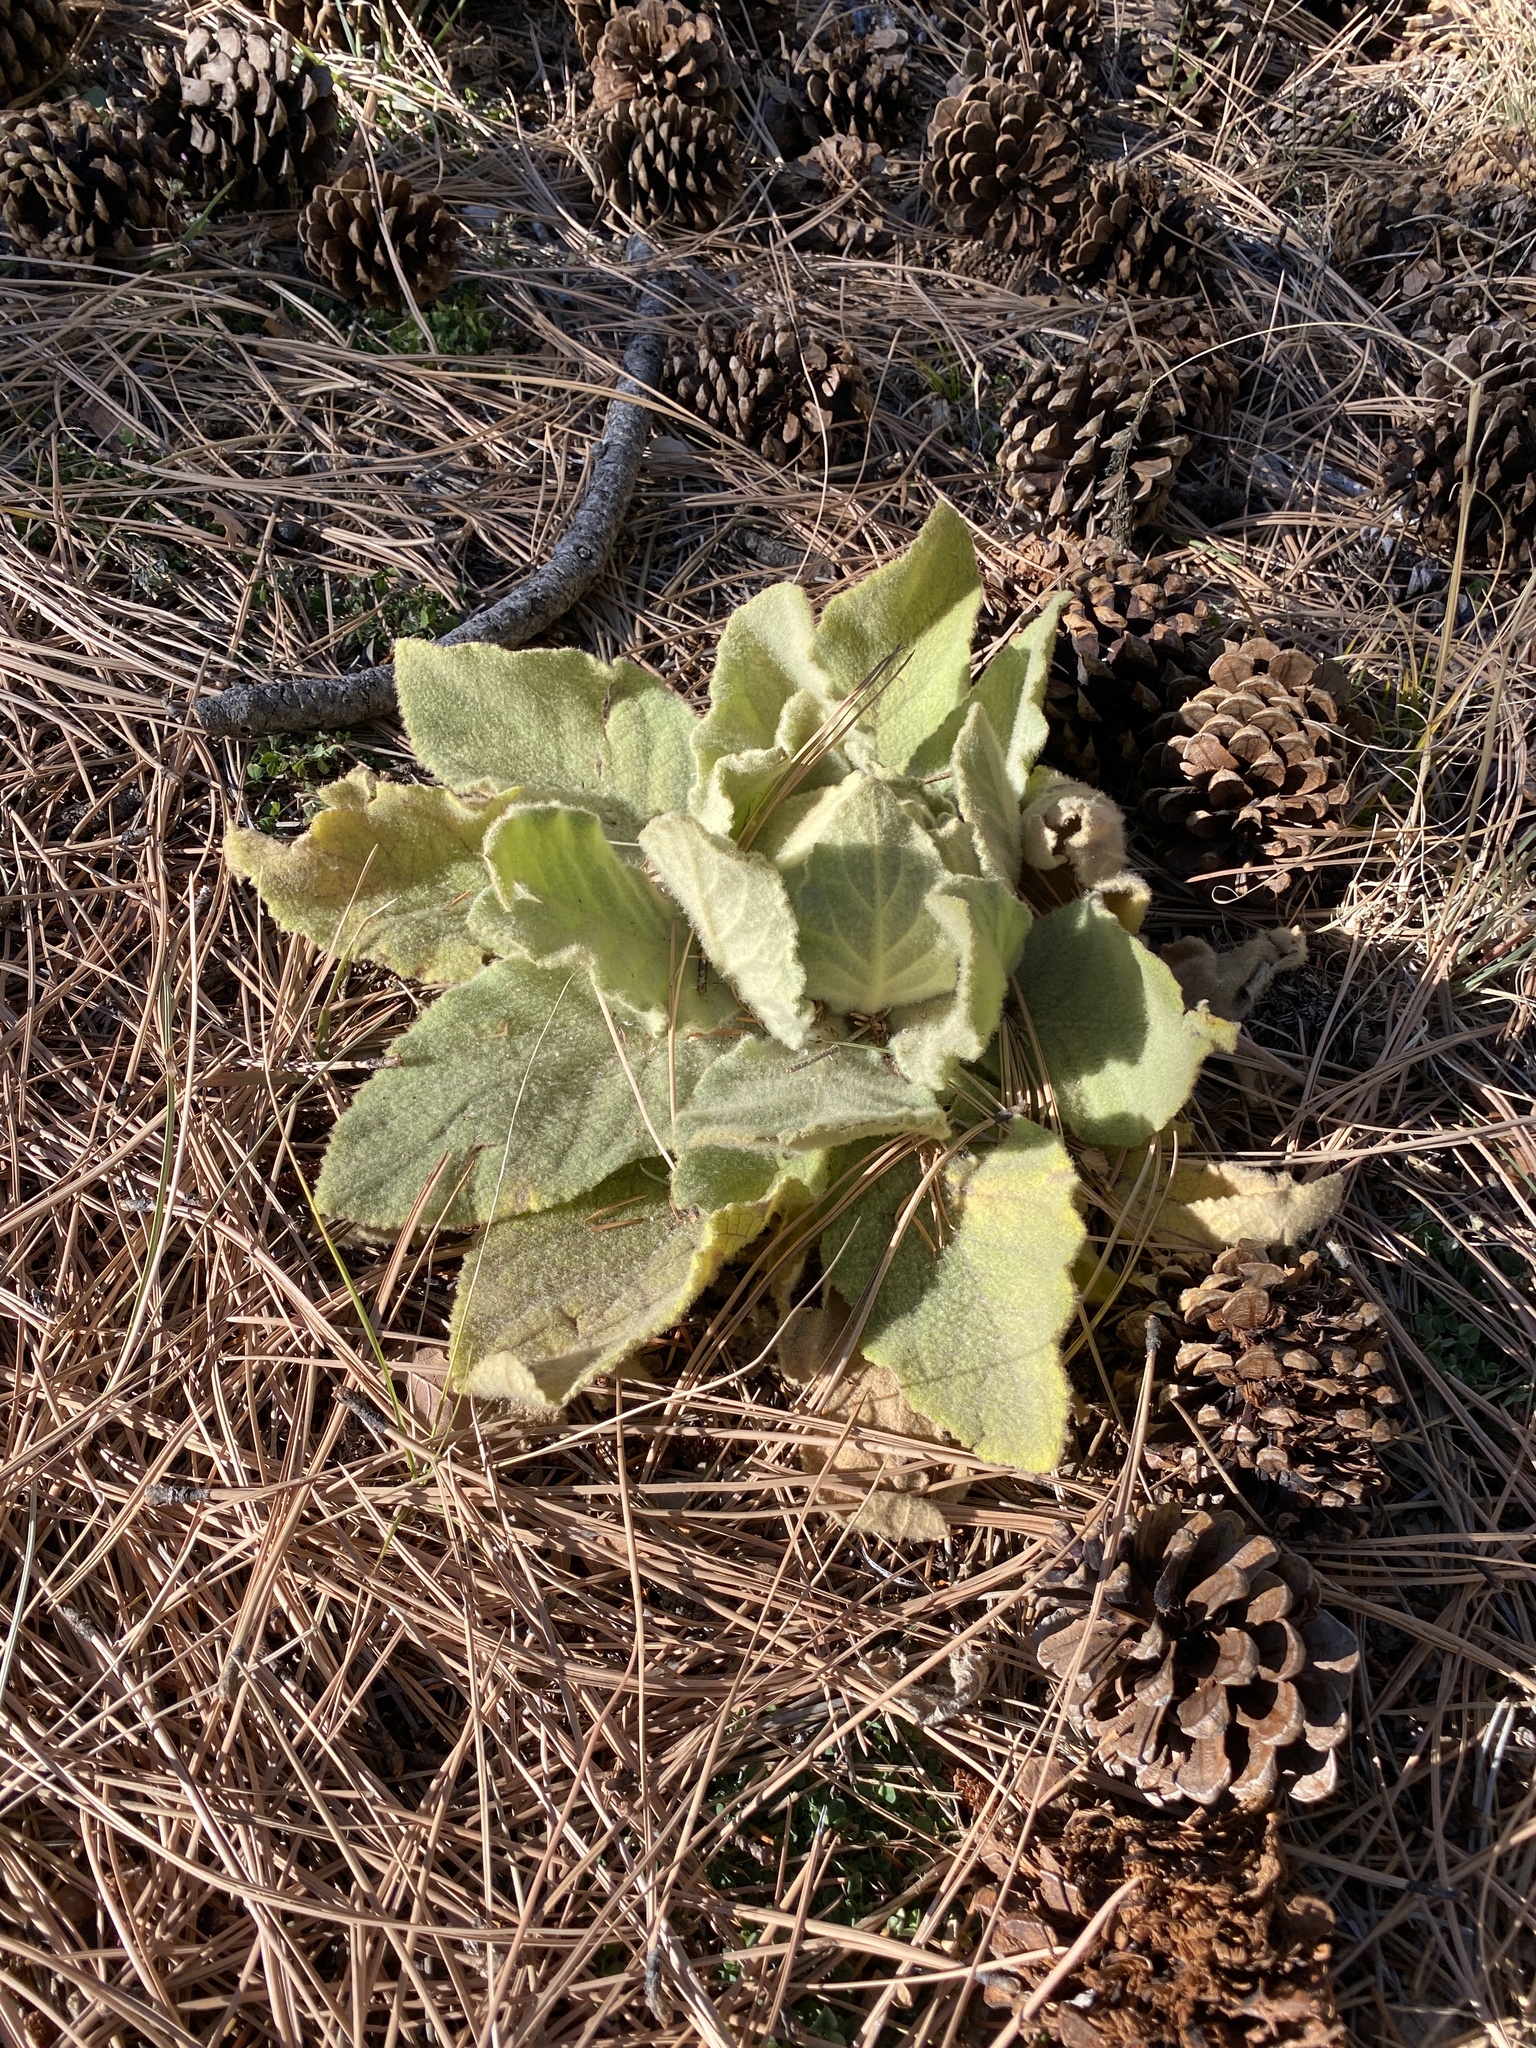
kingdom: Plantae
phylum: Tracheophyta
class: Magnoliopsida
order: Lamiales
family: Scrophulariaceae
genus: Verbascum
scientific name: Verbascum thapsus
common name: Common mullein
